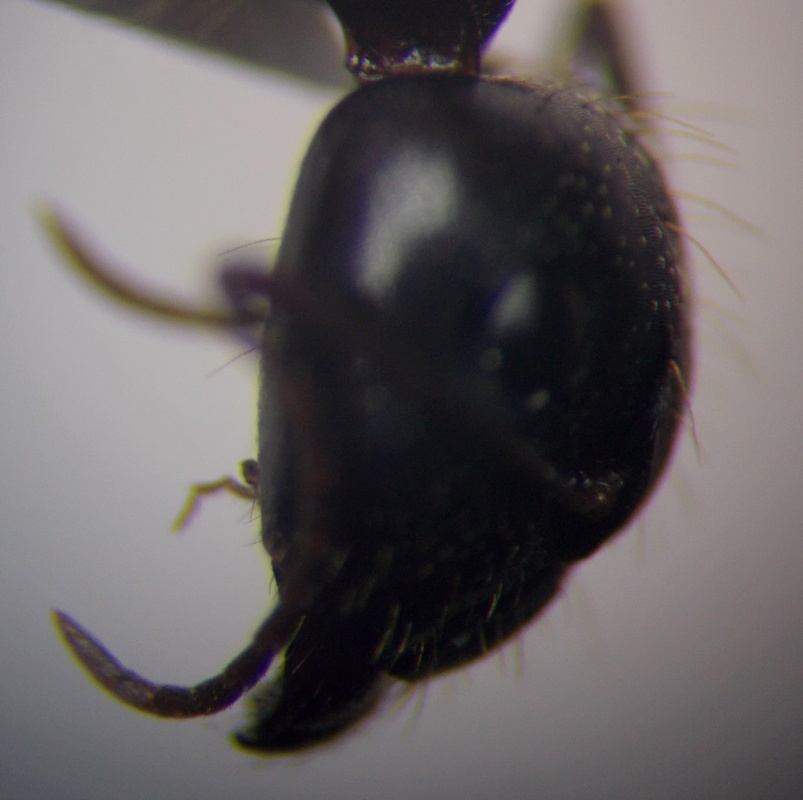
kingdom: Animalia
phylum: Arthropoda
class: Insecta
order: Hymenoptera
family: Formicidae
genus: Camponotus
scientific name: Camponotus aethiops
